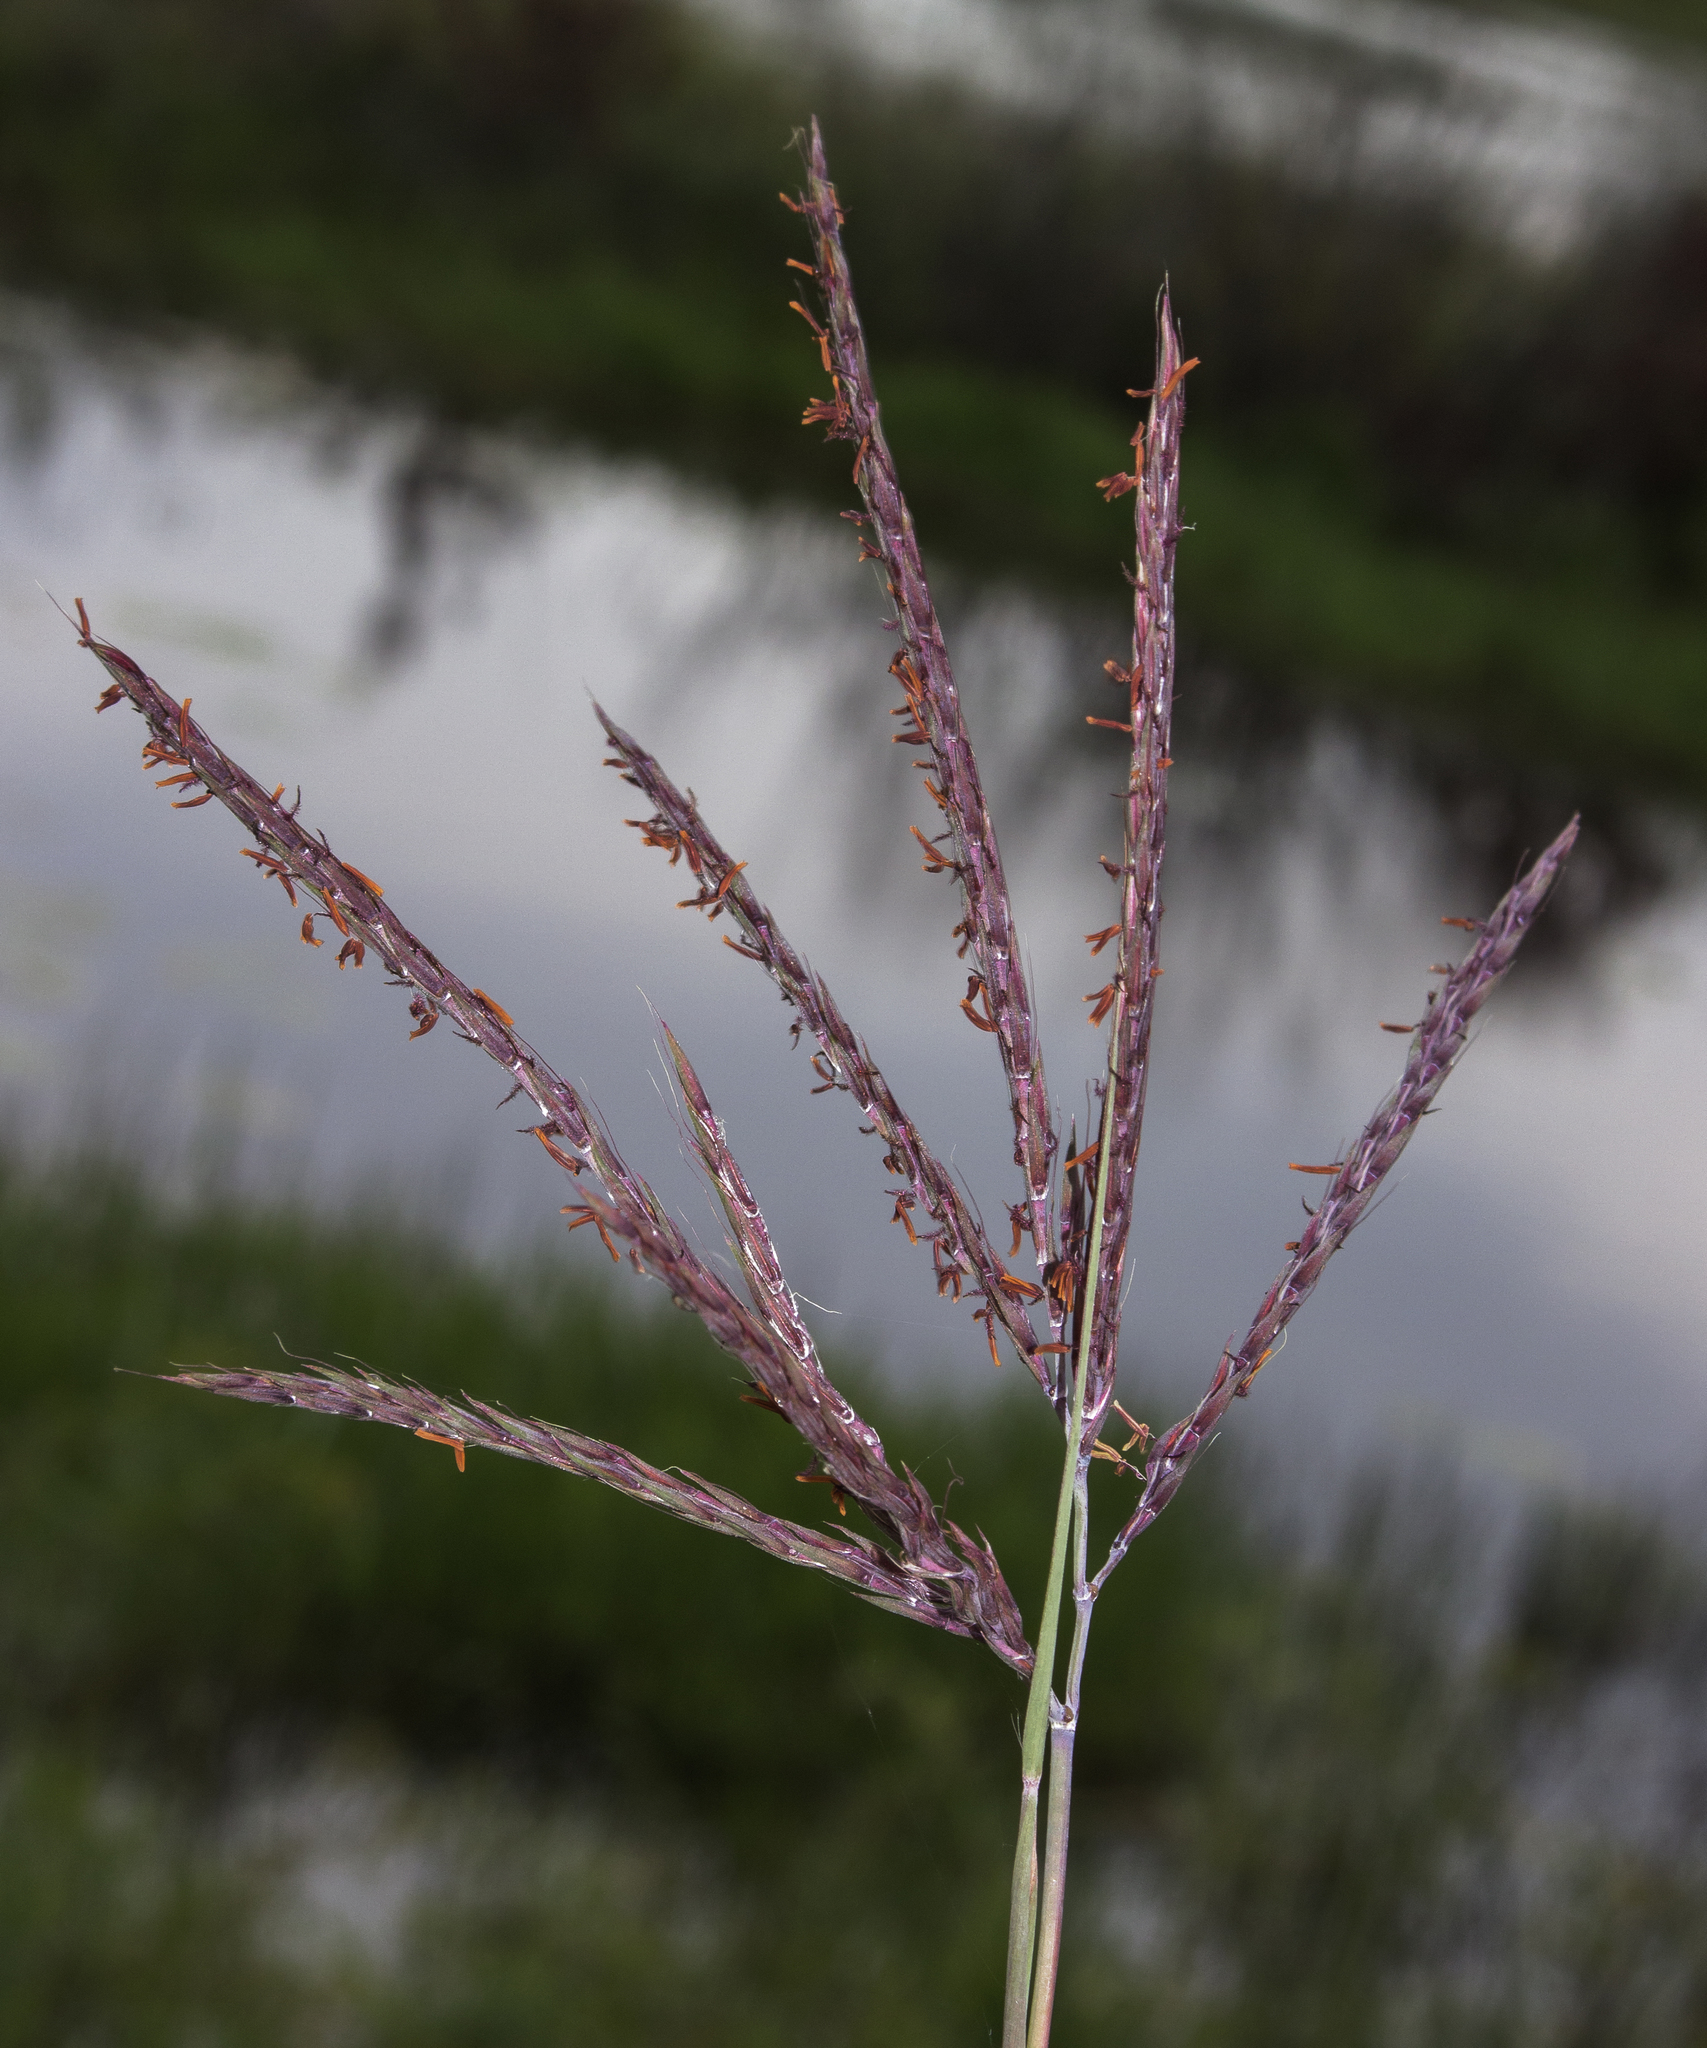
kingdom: Plantae
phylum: Tracheophyta
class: Liliopsida
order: Poales
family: Poaceae
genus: Andropogon
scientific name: Andropogon gerardi
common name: Big bluestem
